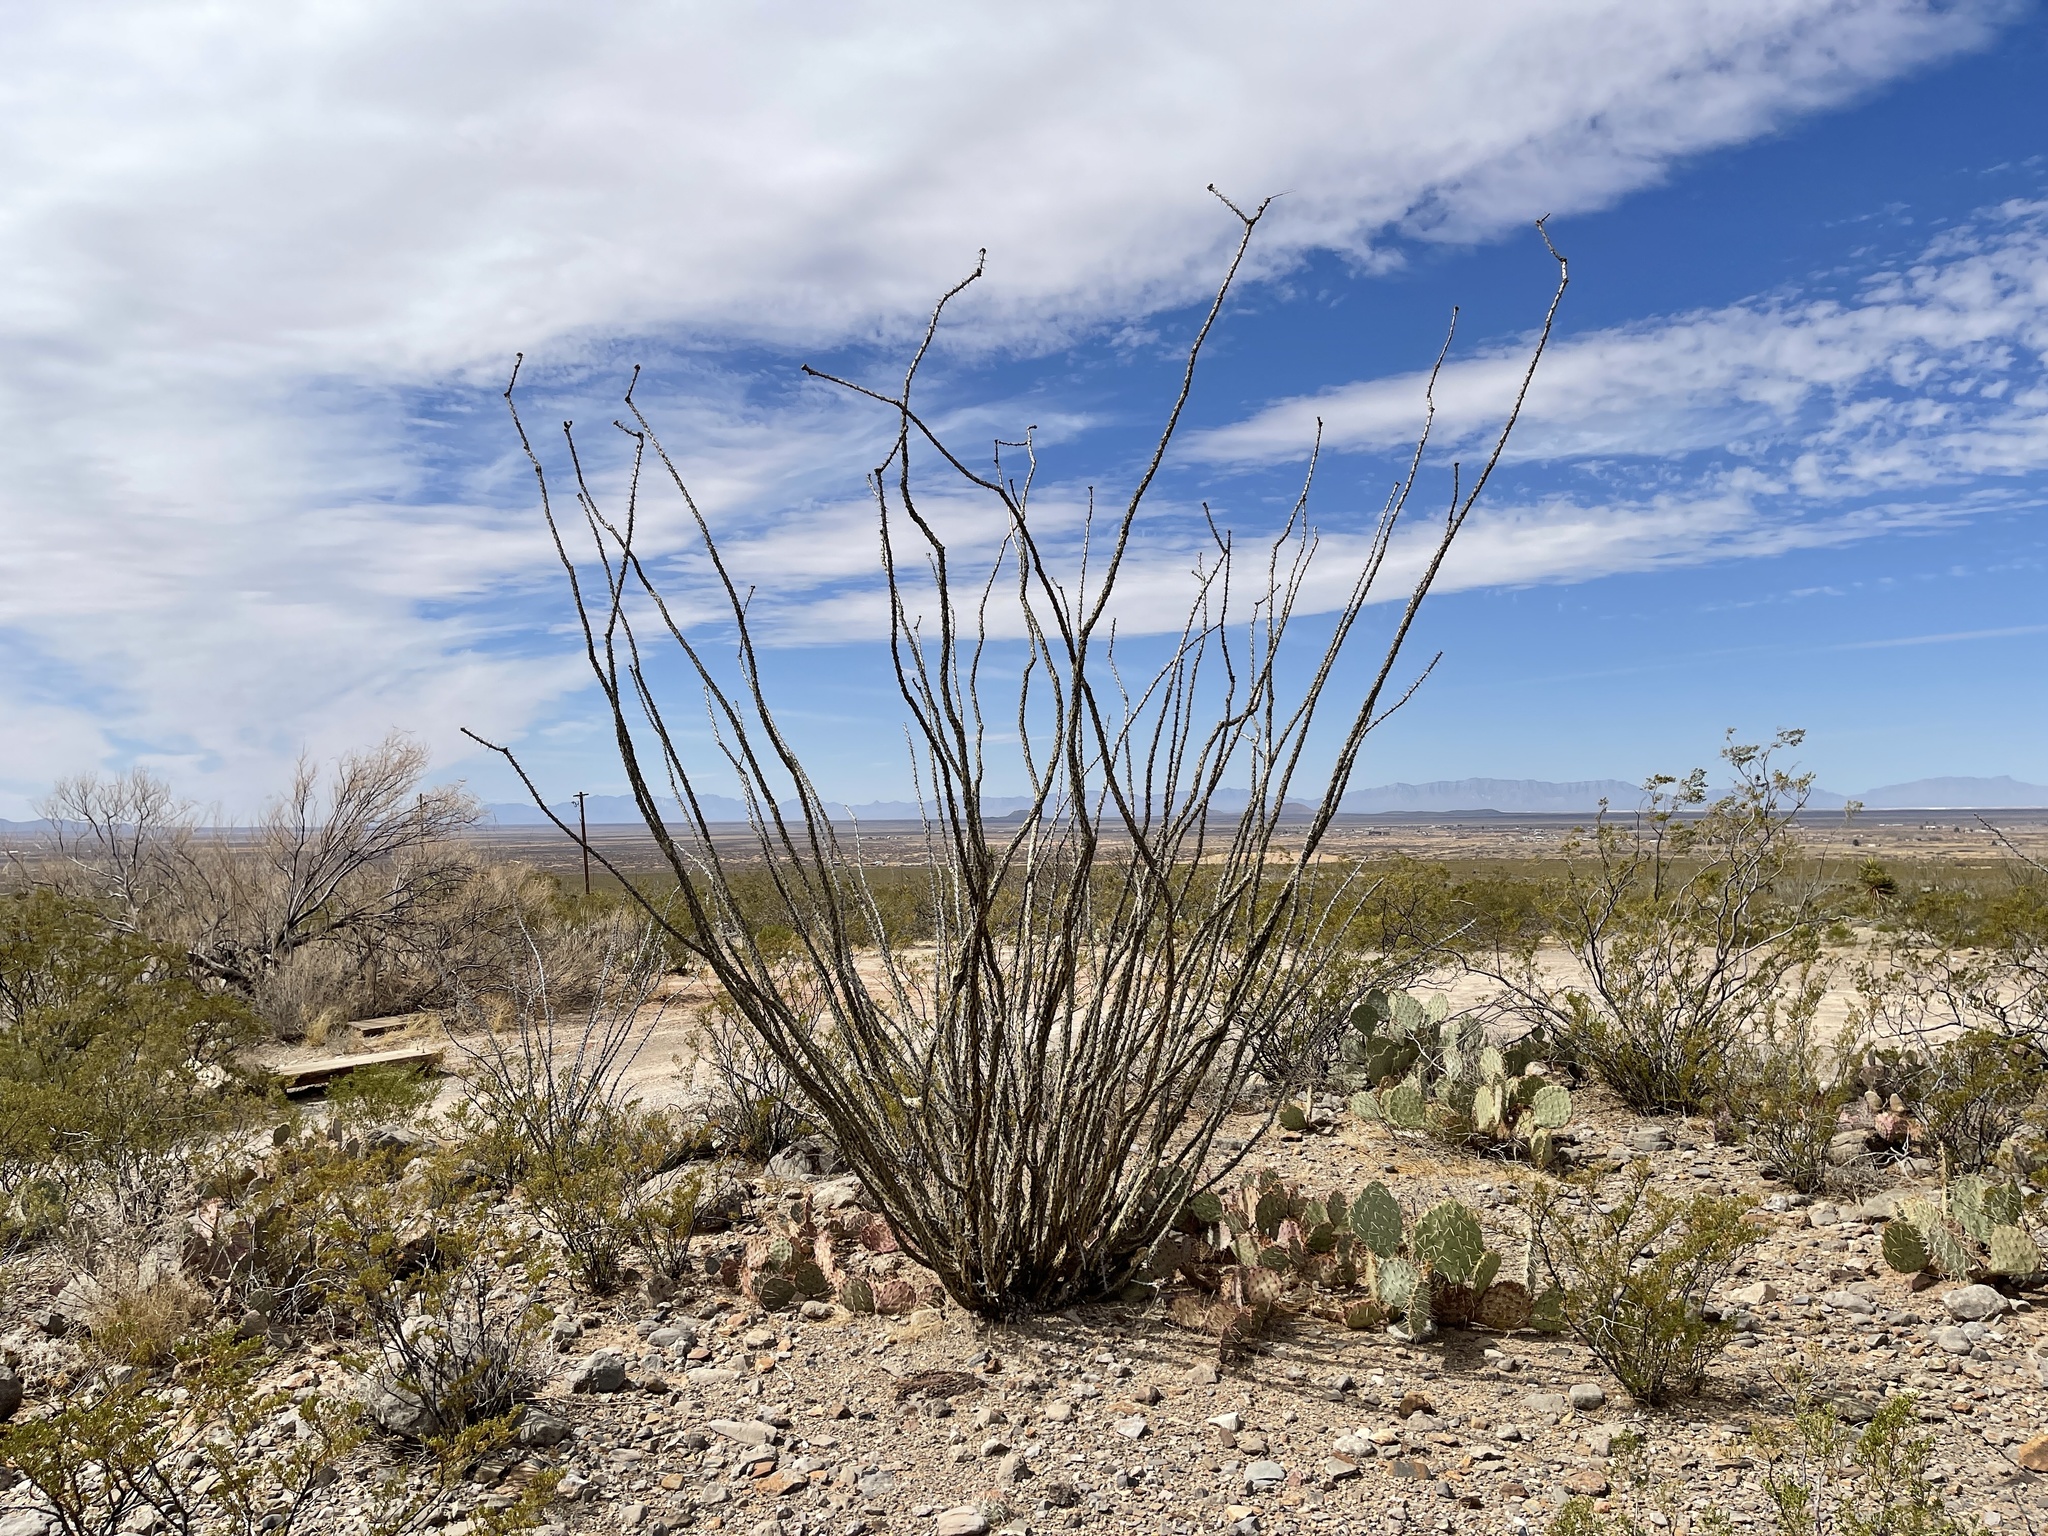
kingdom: Plantae
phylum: Tracheophyta
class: Magnoliopsida
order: Ericales
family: Fouquieriaceae
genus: Fouquieria
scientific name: Fouquieria splendens
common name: Vine-cactus
